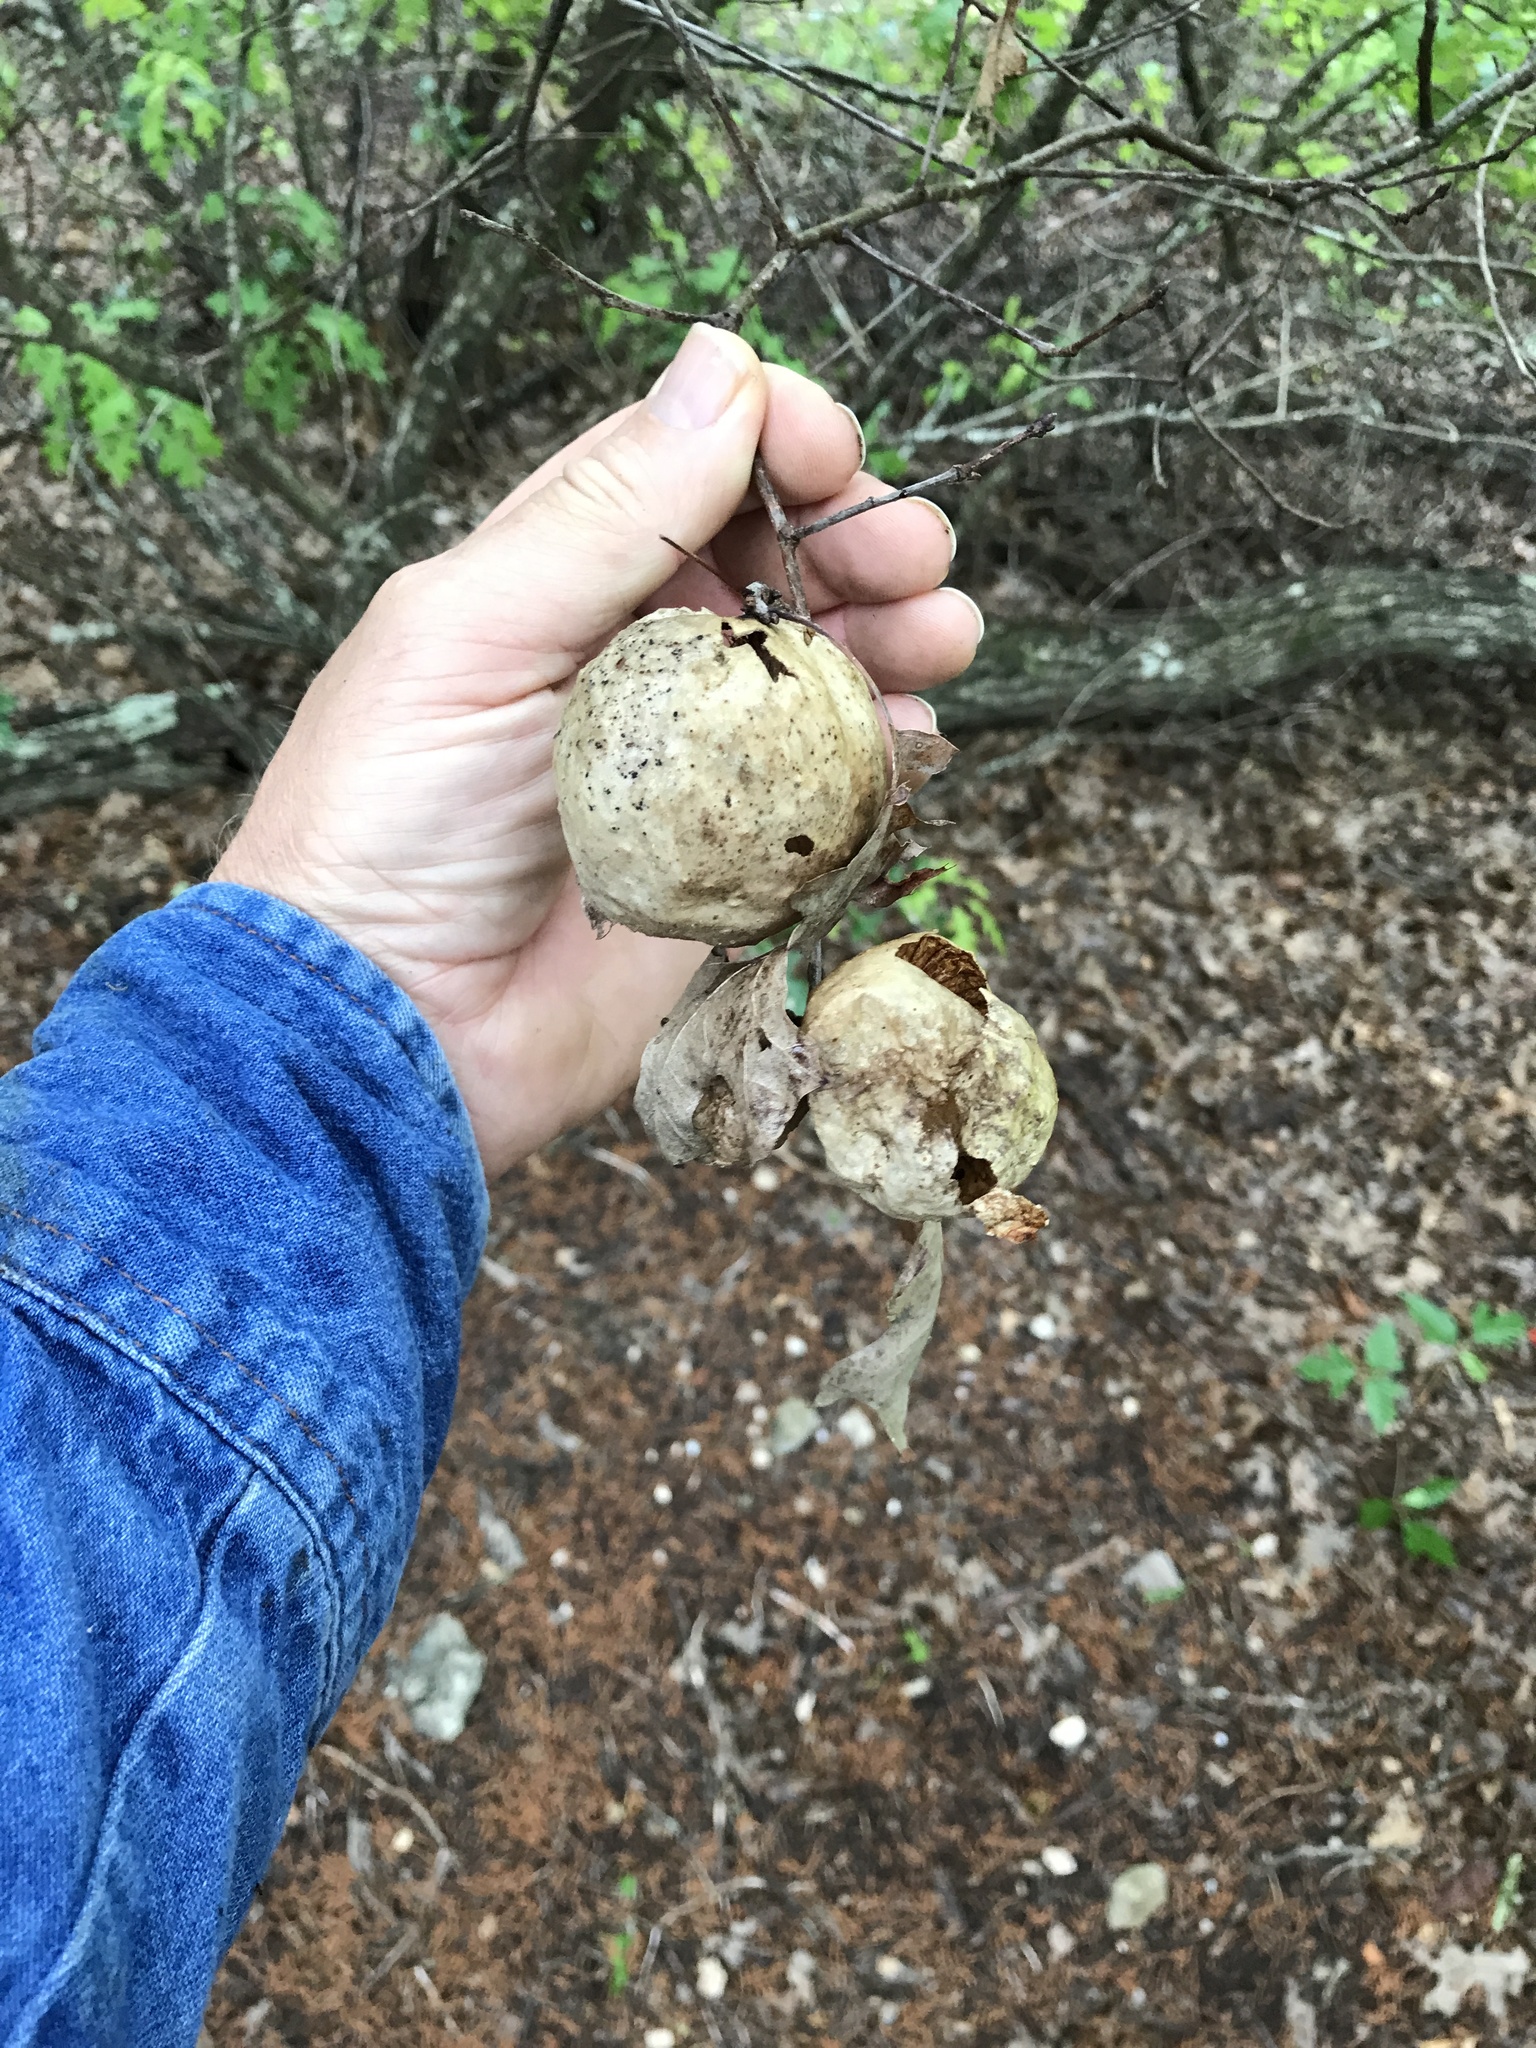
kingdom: Animalia
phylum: Arthropoda
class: Insecta
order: Hymenoptera
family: Cynipidae
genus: Amphibolips
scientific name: Amphibolips
